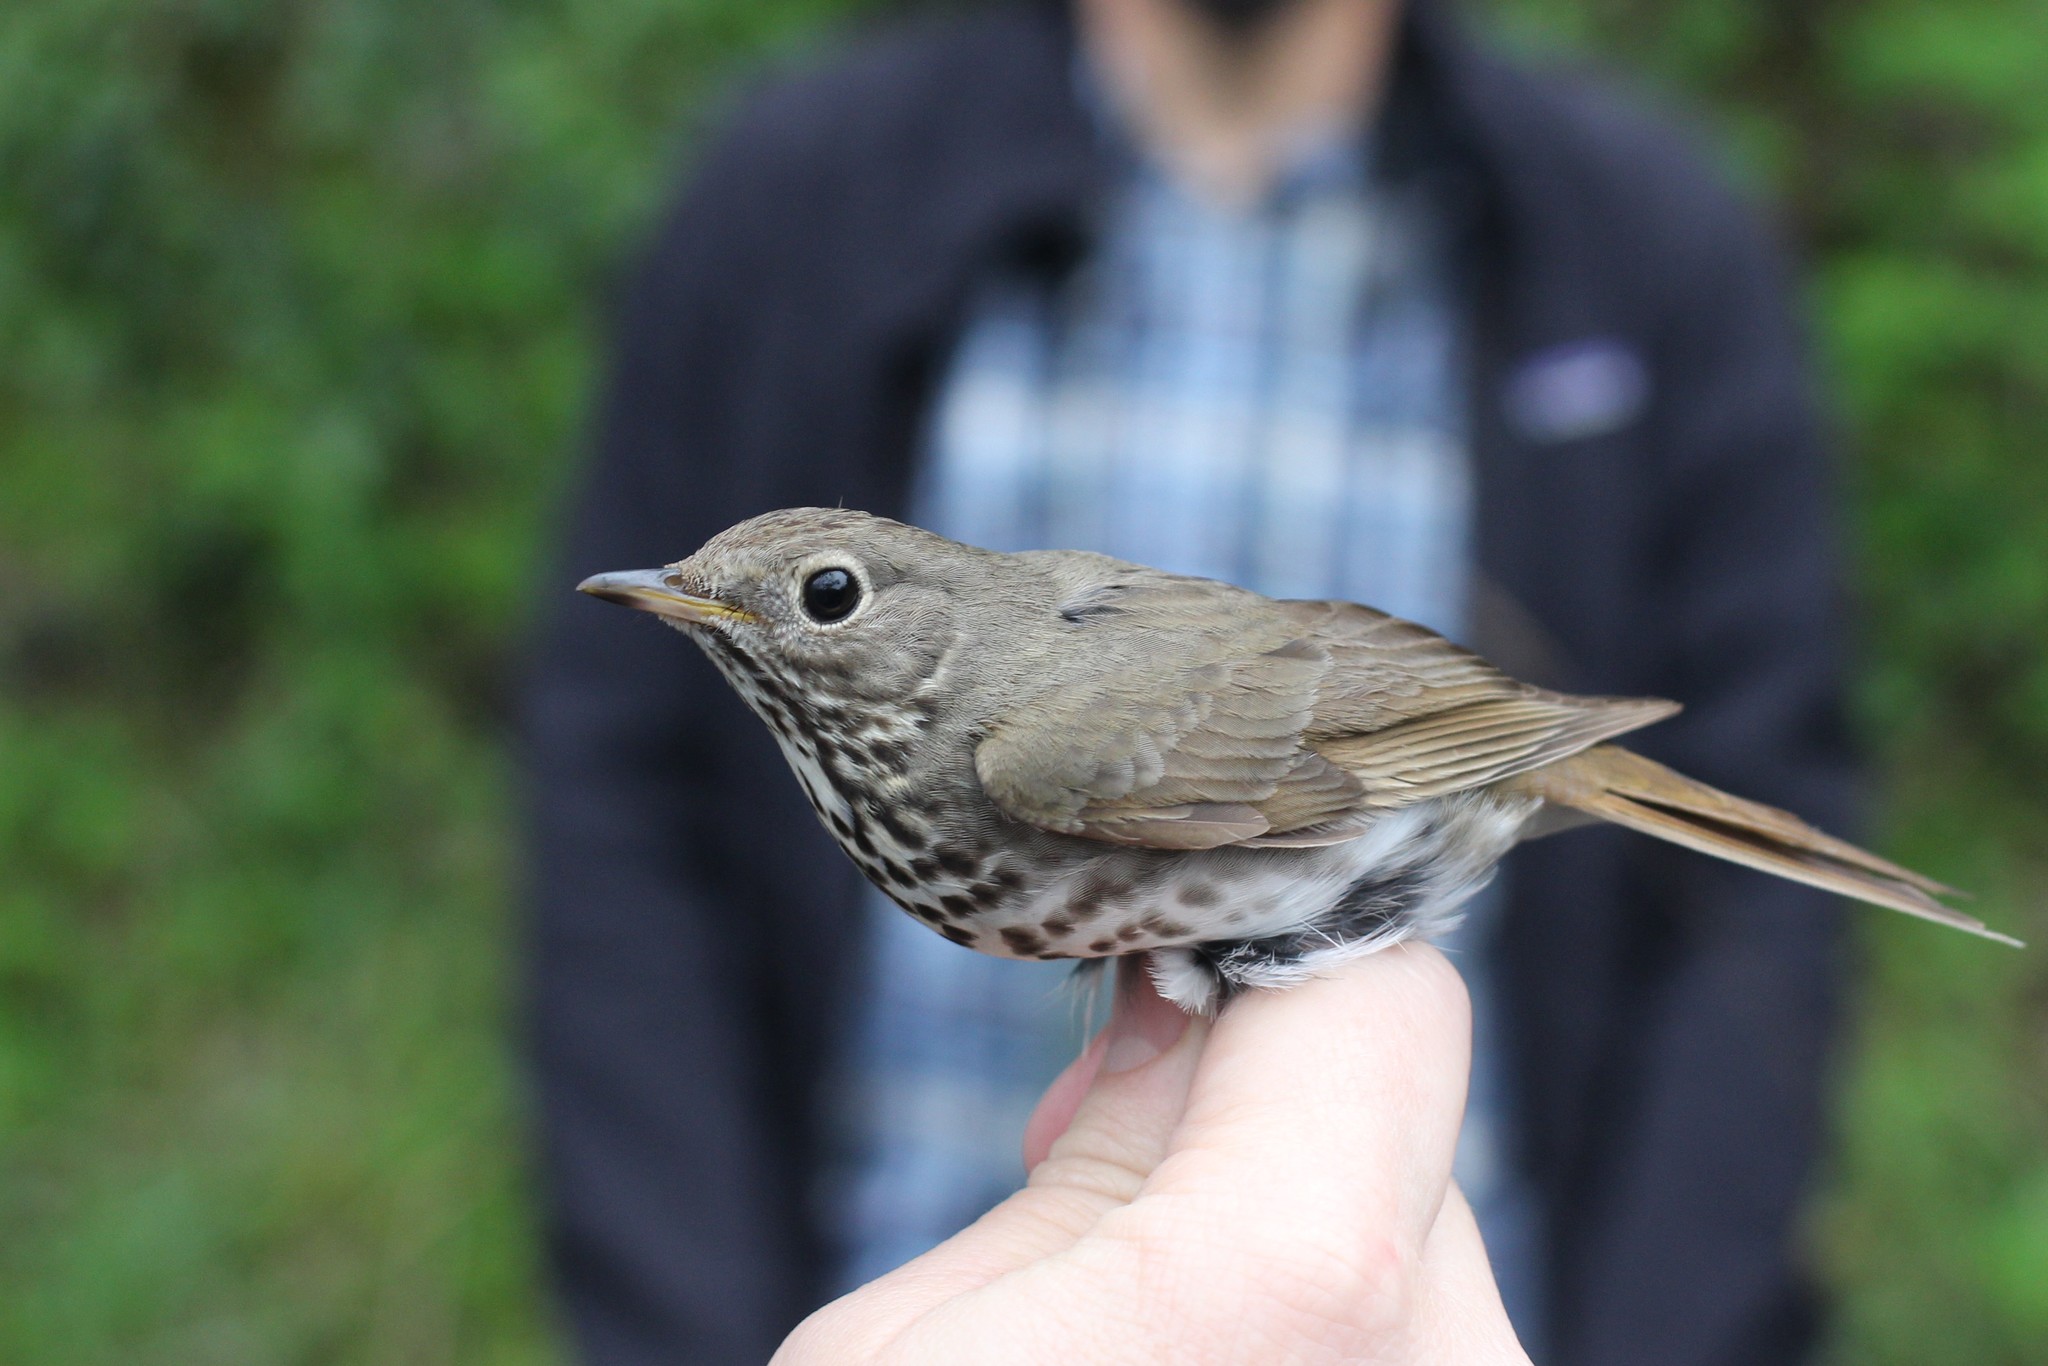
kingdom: Animalia
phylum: Chordata
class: Aves
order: Passeriformes
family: Turdidae
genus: Catharus
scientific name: Catharus guttatus
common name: Hermit thrush
